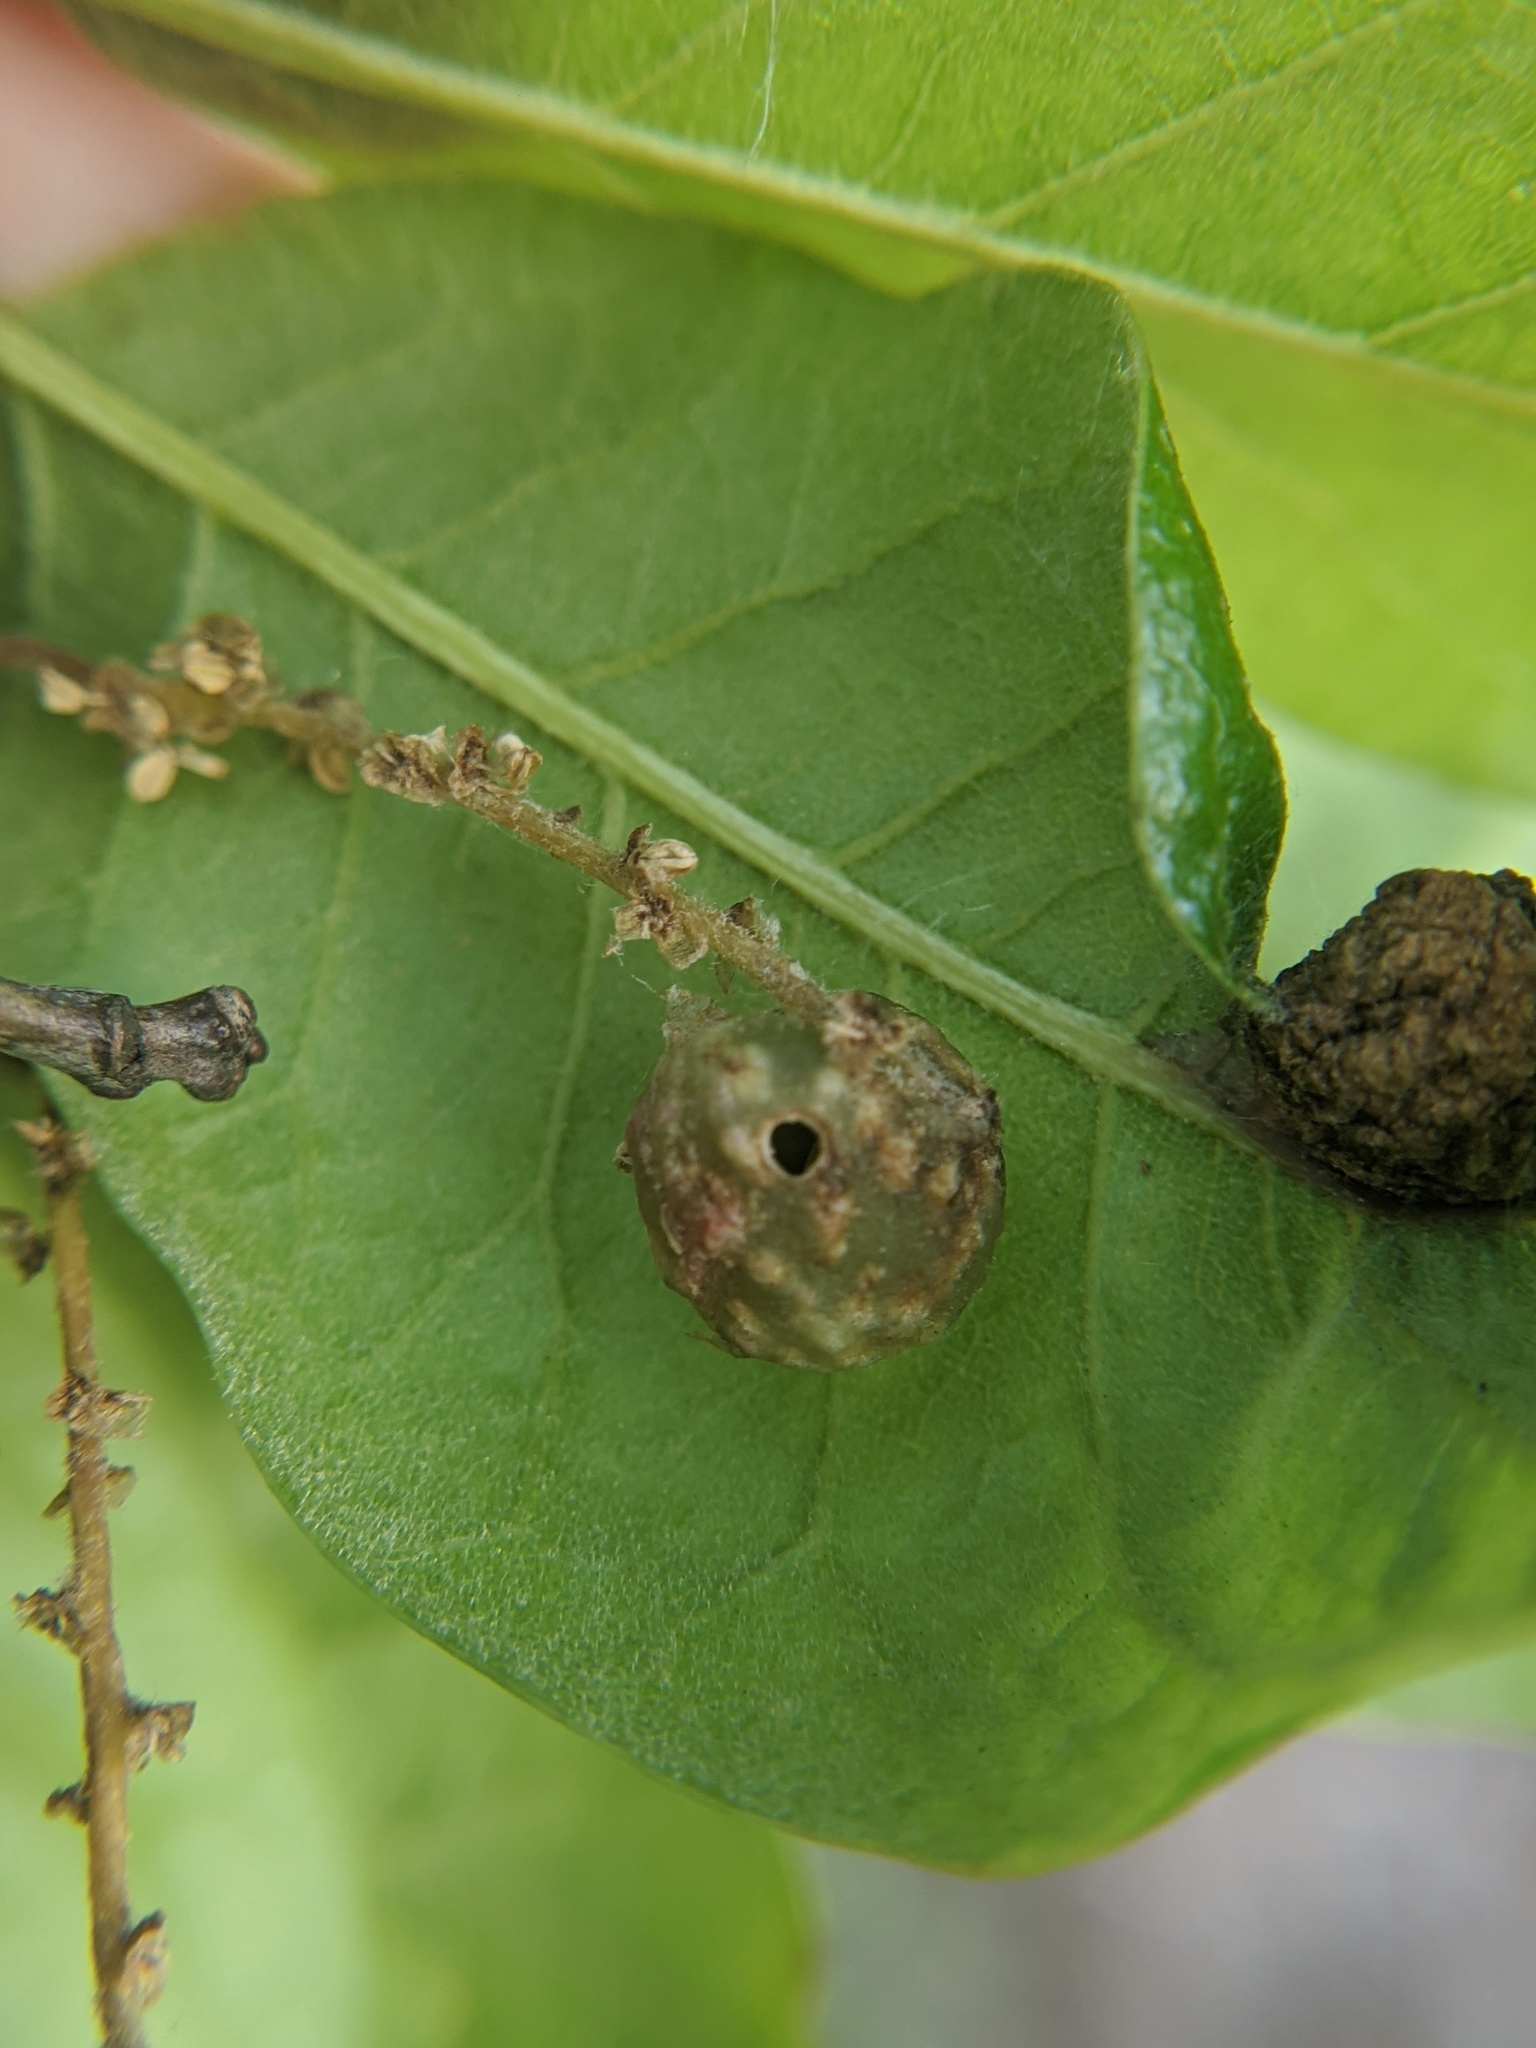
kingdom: Animalia
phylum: Arthropoda
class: Insecta
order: Hymenoptera
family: Cynipidae
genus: Dryocosmus
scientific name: Dryocosmus quercuspalustris
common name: Succulent oak gall wasp
